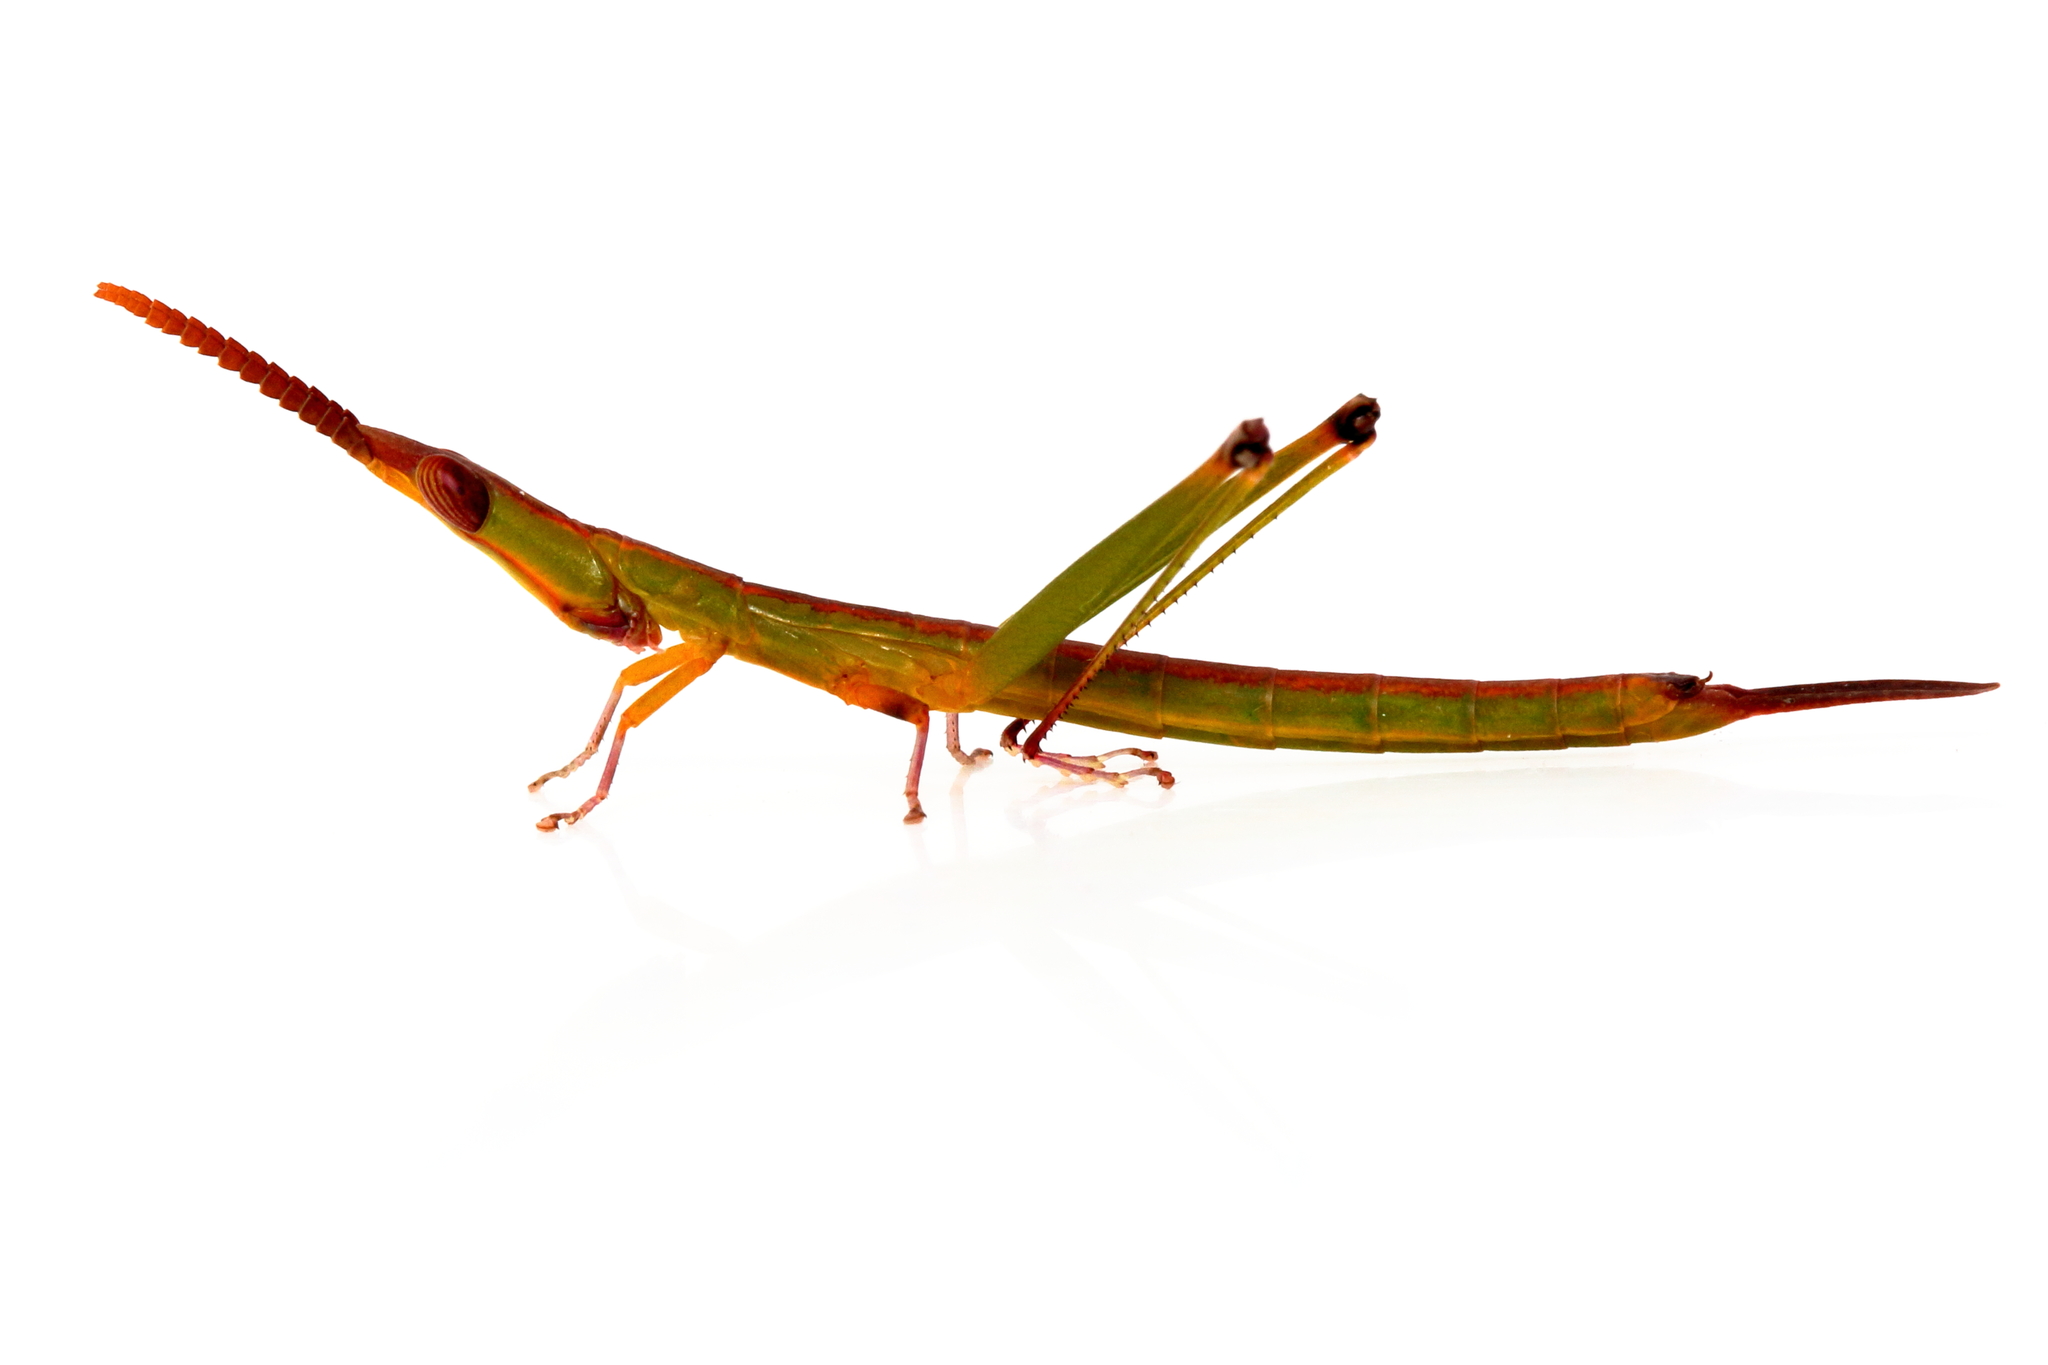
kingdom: Animalia
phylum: Arthropoda
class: Insecta
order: Orthoptera
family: Morabidae
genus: Warramaba
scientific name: Warramaba whitei
